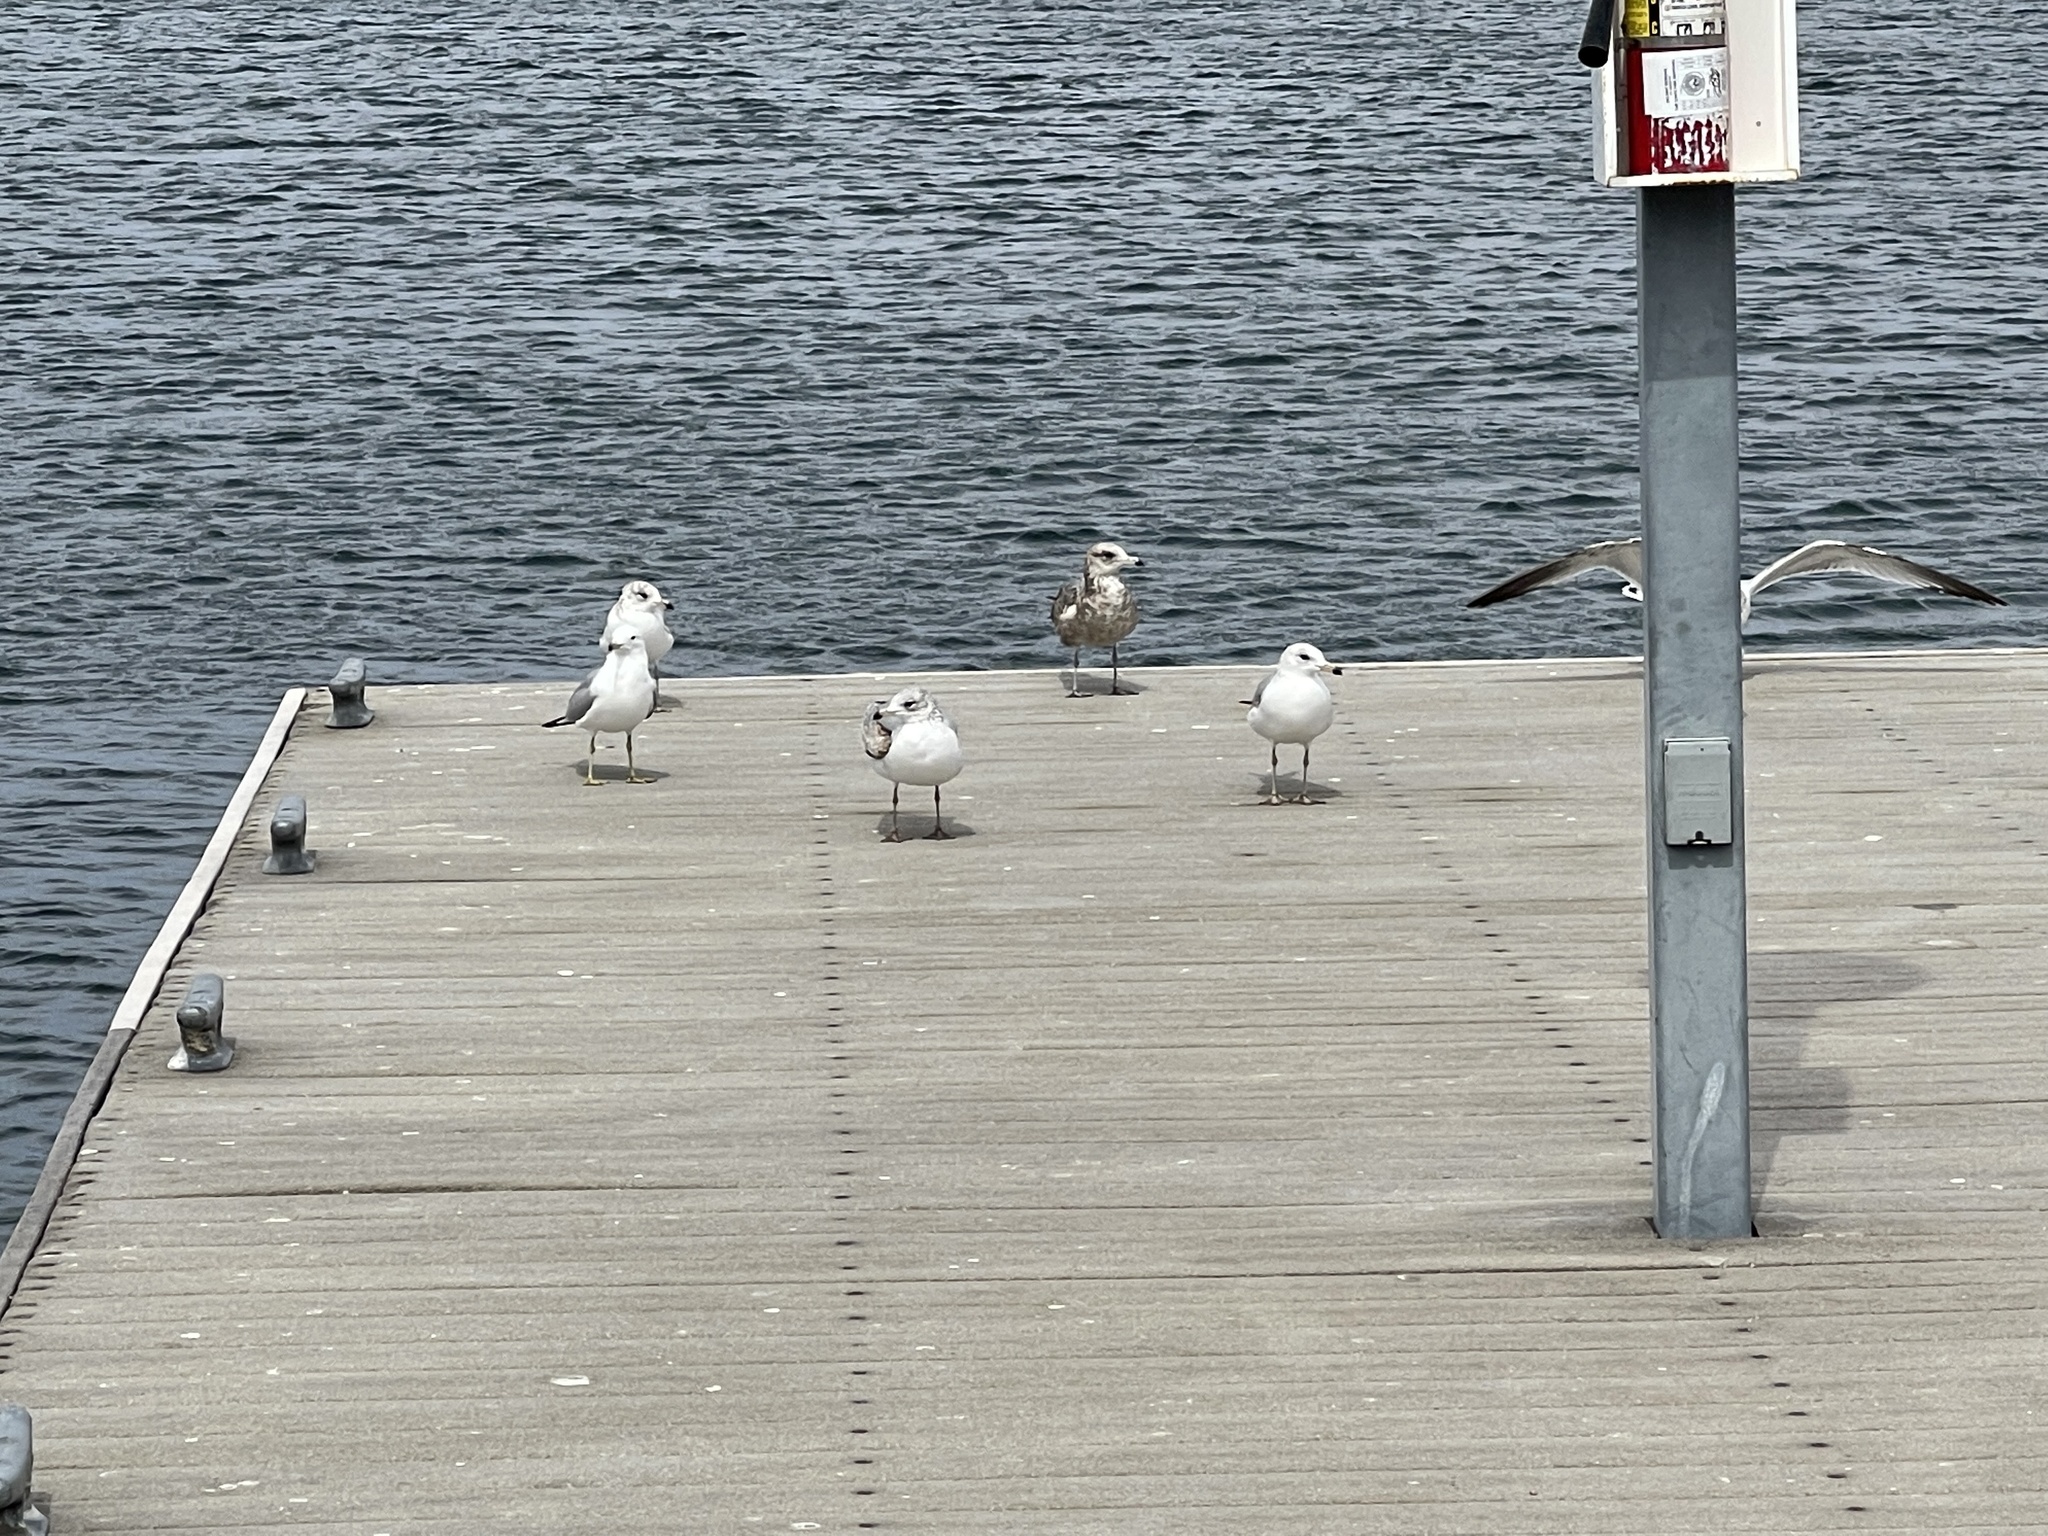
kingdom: Animalia
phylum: Chordata
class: Aves
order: Charadriiformes
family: Laridae
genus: Larus
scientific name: Larus delawarensis
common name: Ring-billed gull
